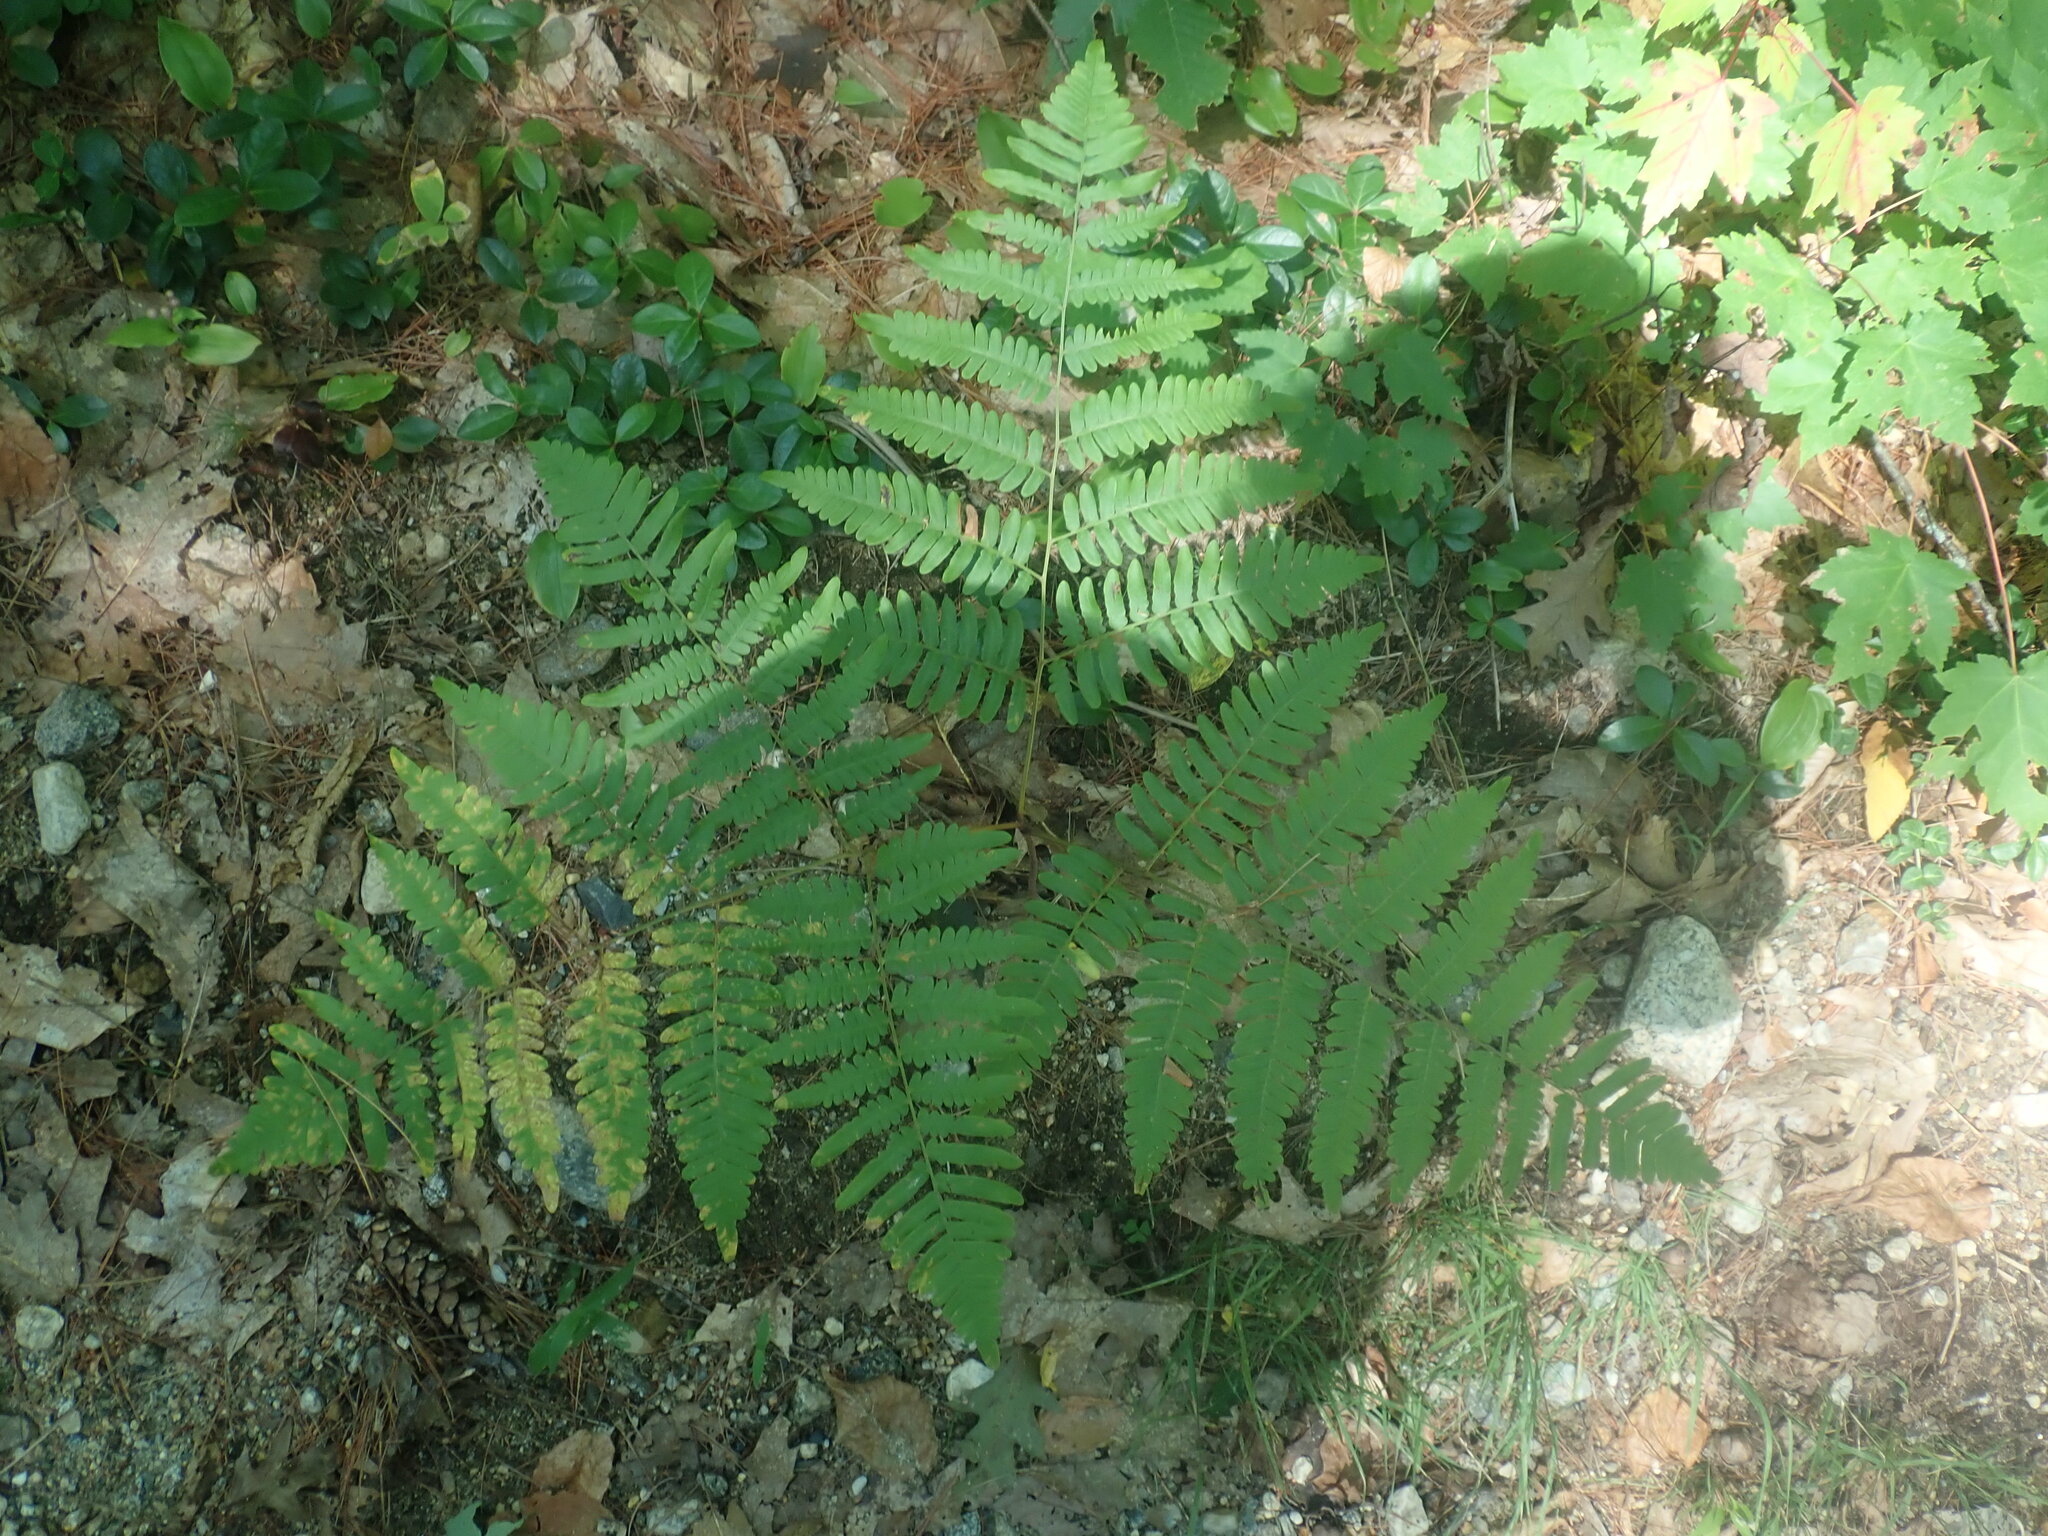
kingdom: Plantae
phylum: Tracheophyta
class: Polypodiopsida
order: Polypodiales
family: Dennstaedtiaceae
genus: Pteridium
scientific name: Pteridium aquilinum
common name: Bracken
